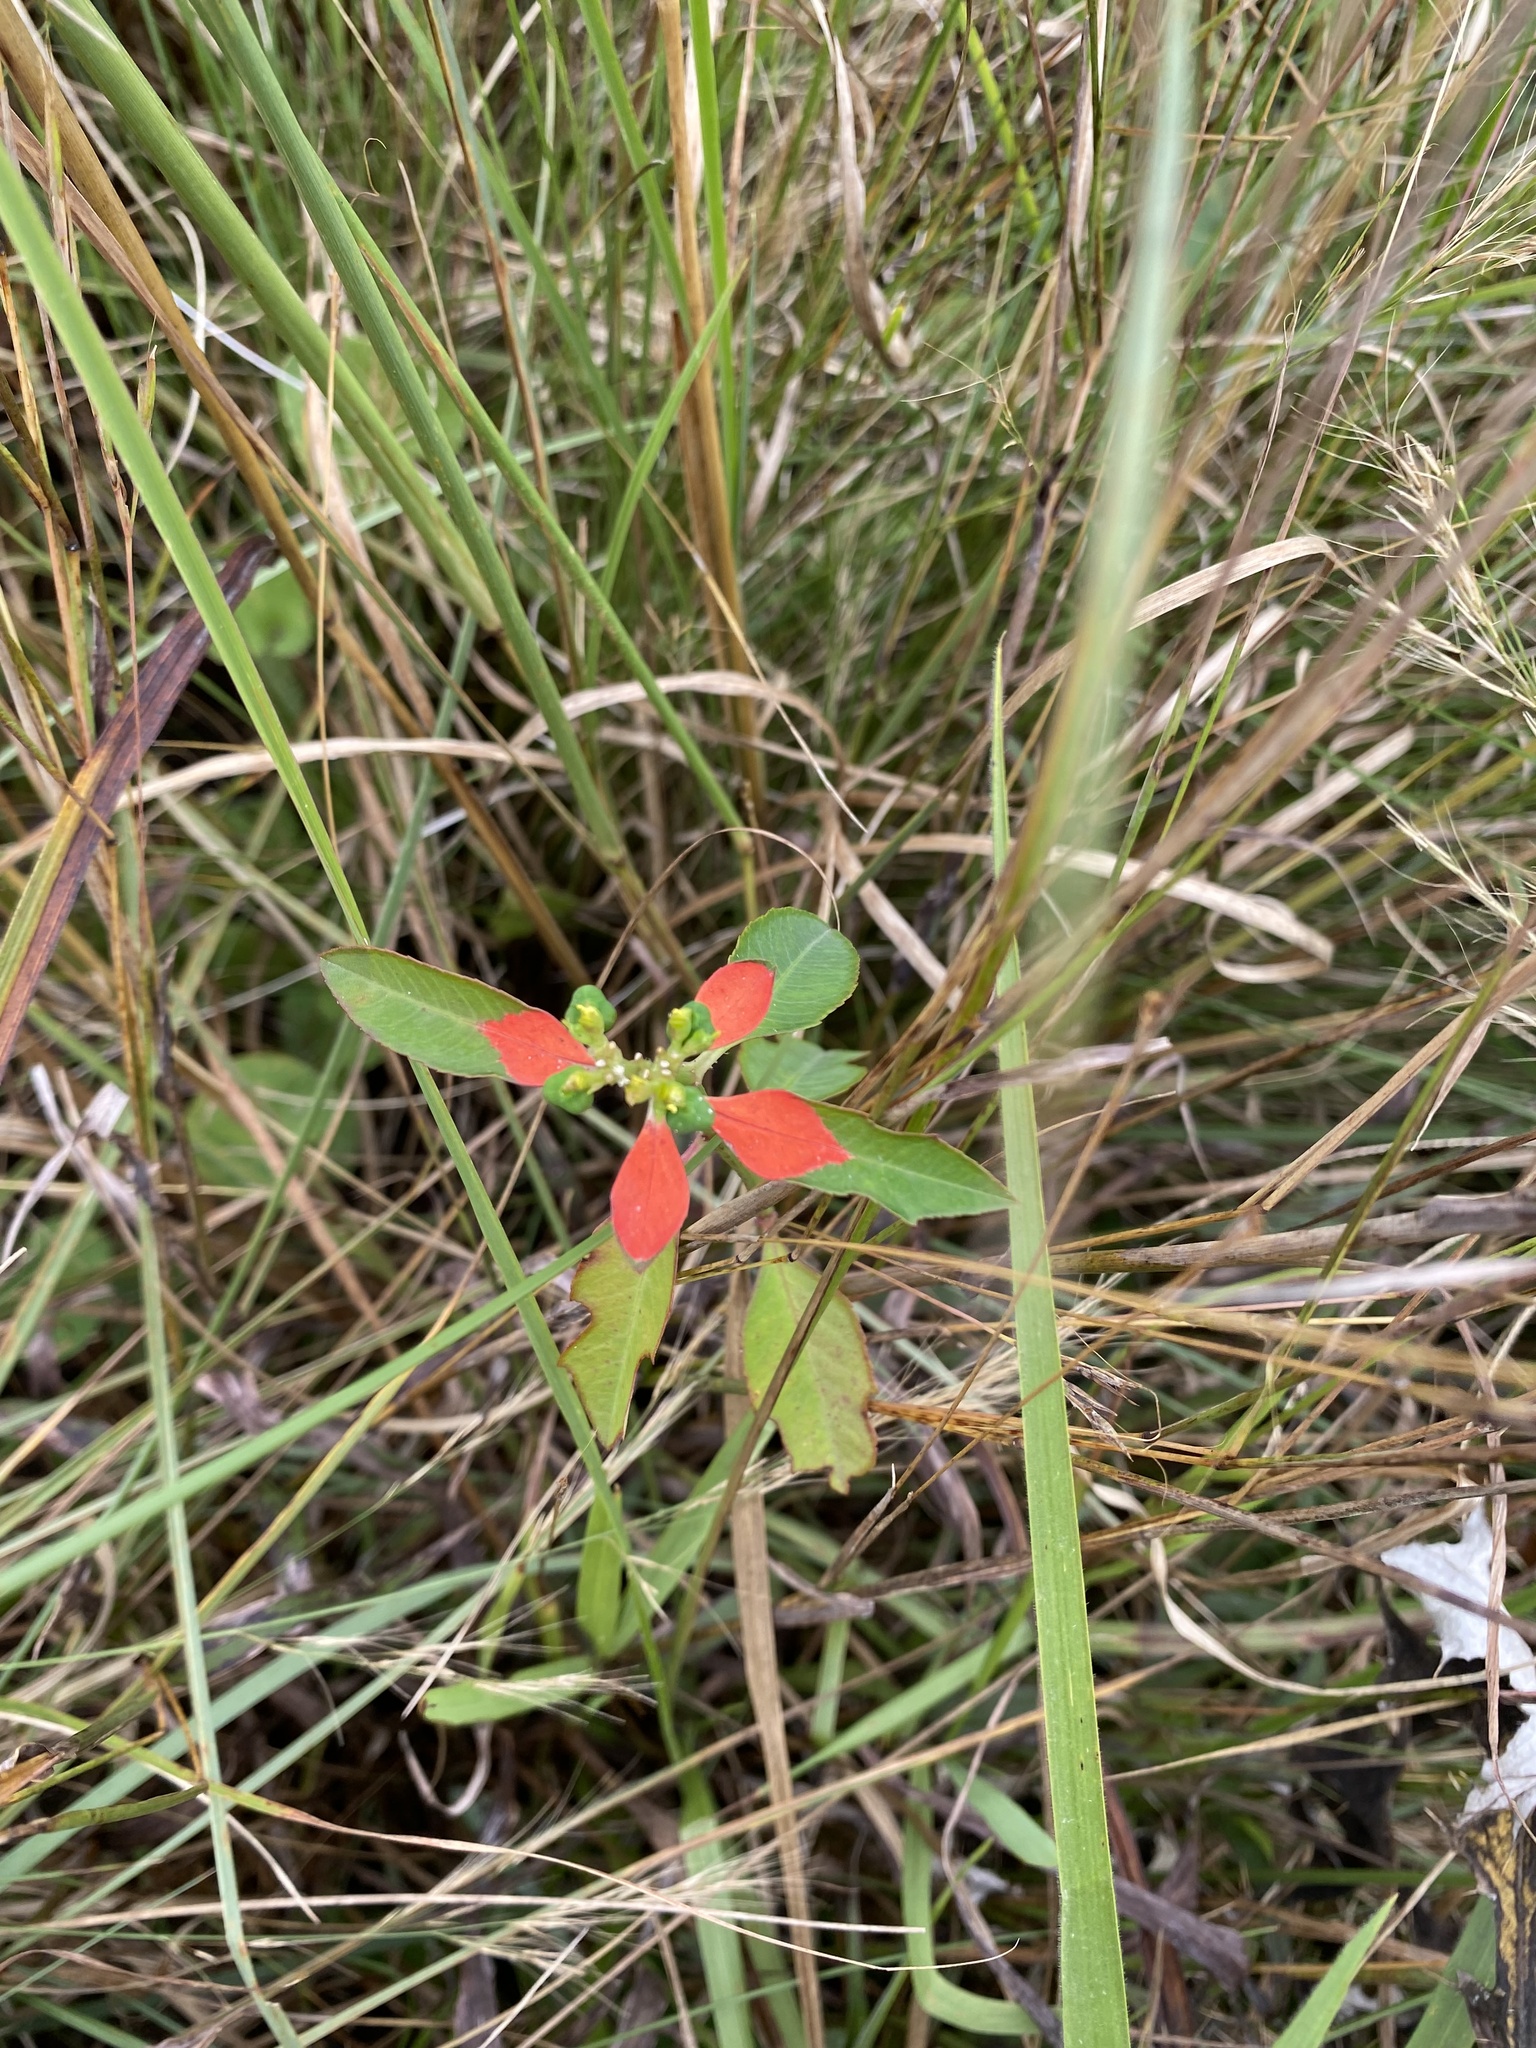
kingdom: Plantae
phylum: Tracheophyta
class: Magnoliopsida
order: Malpighiales
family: Euphorbiaceae
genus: Euphorbia
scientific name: Euphorbia heterophylla
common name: Mexican fireplant
